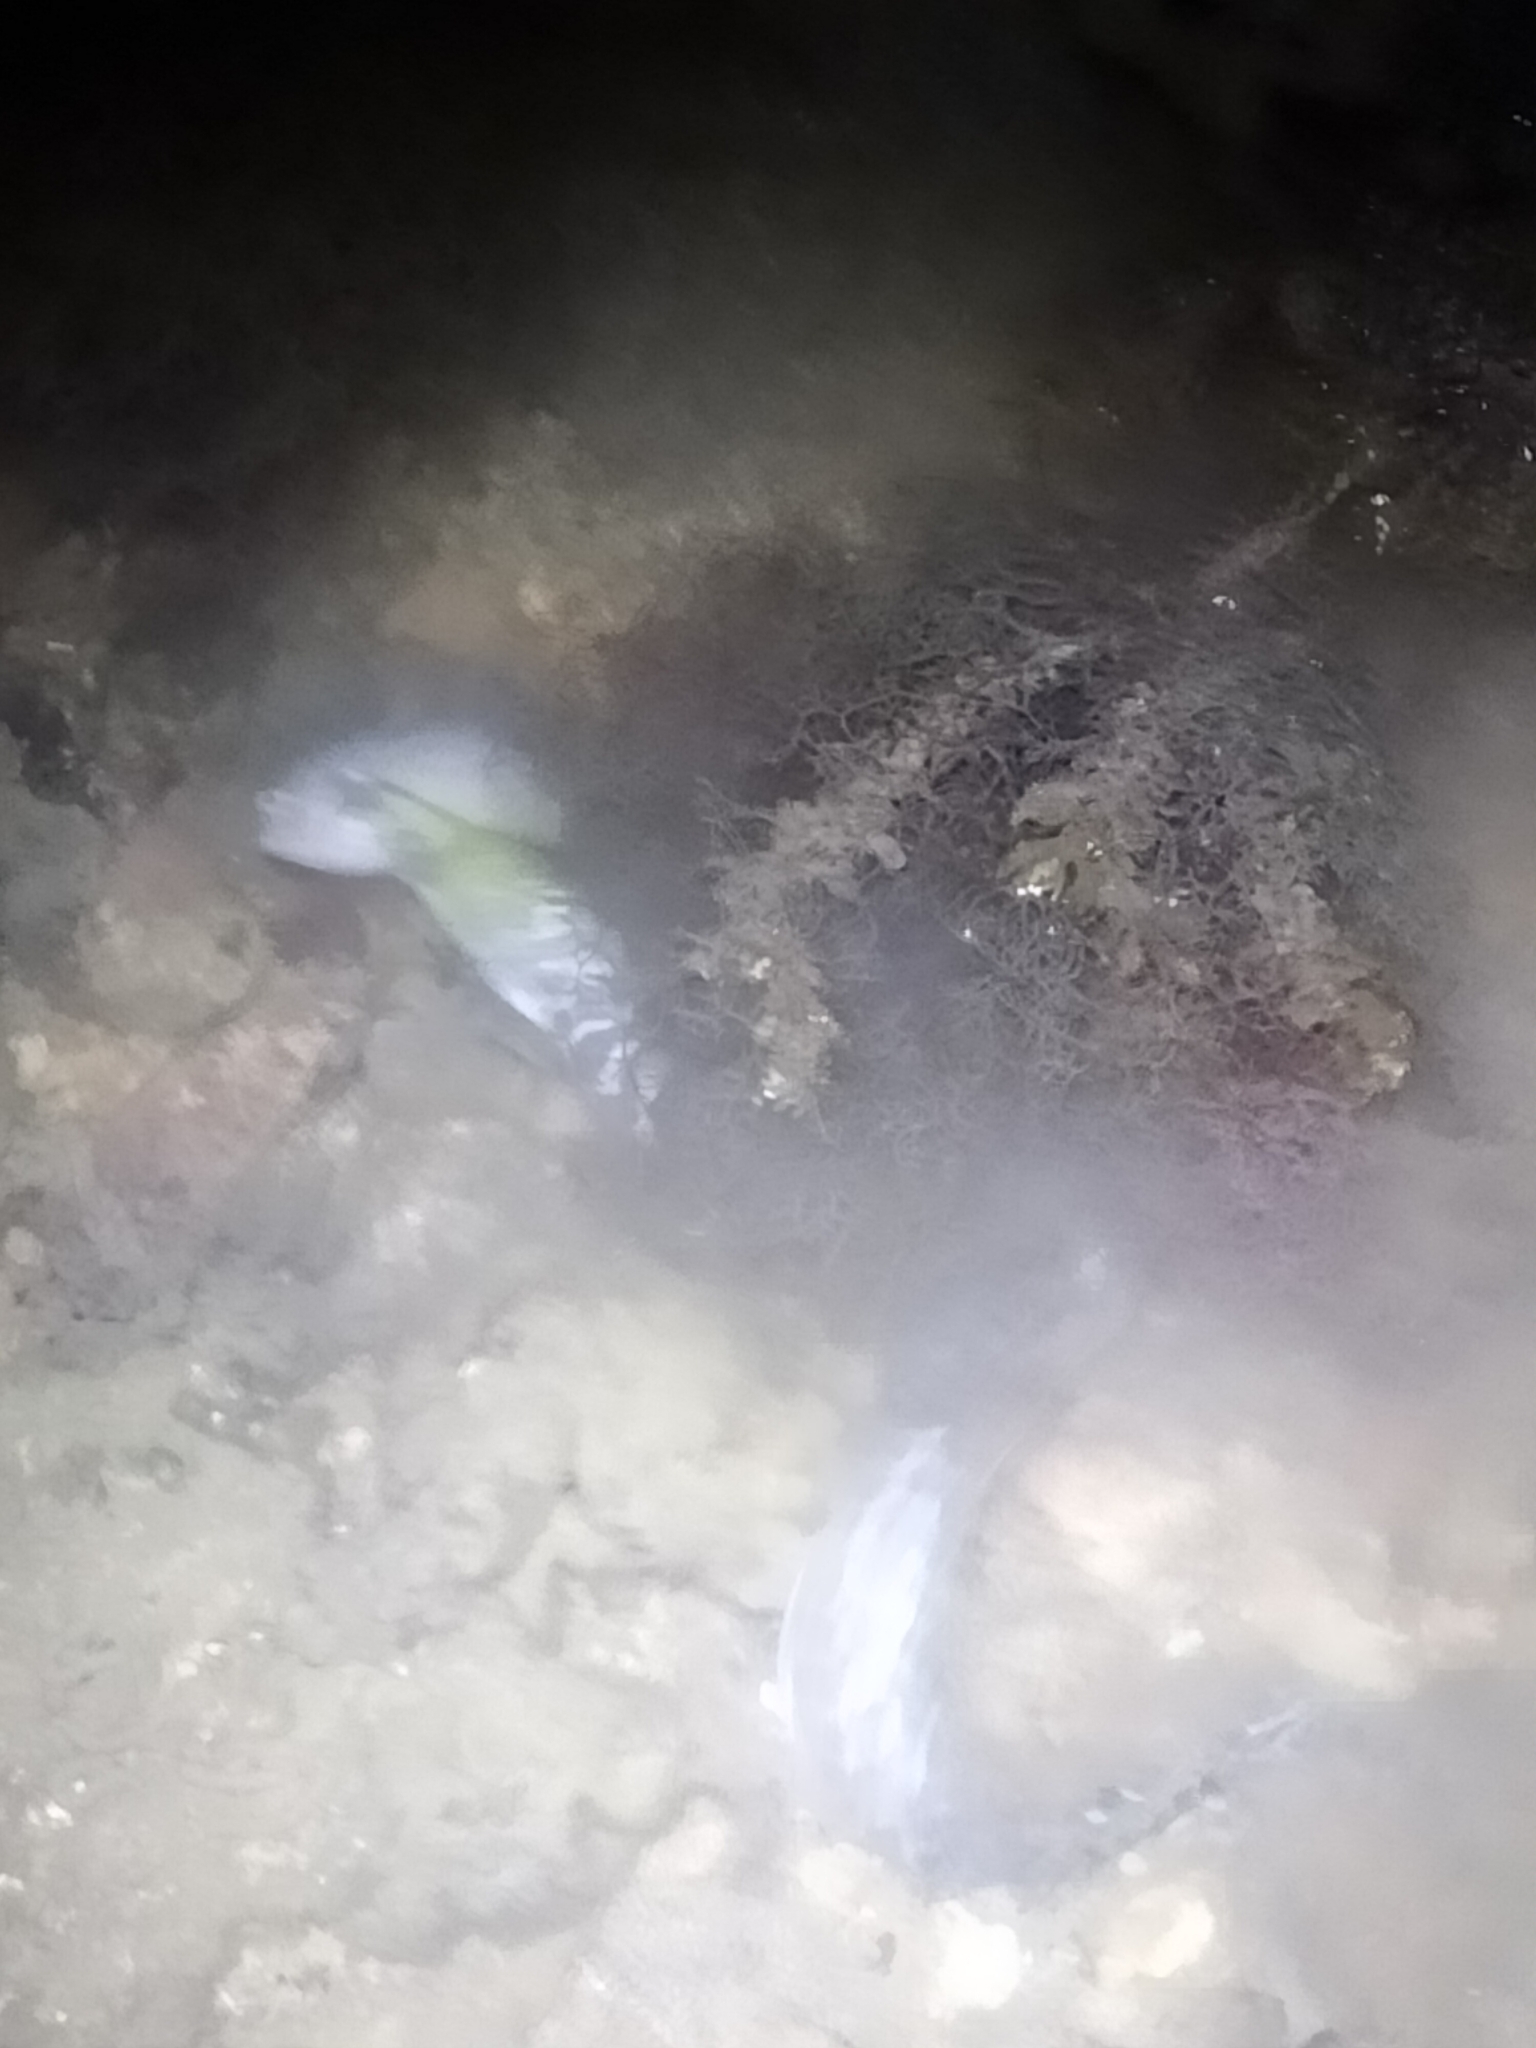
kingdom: Animalia
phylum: Chordata
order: Anguilliformes
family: Muraenidae
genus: Gymnothorax
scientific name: Gymnothorax undulatus
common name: Leopard moray
